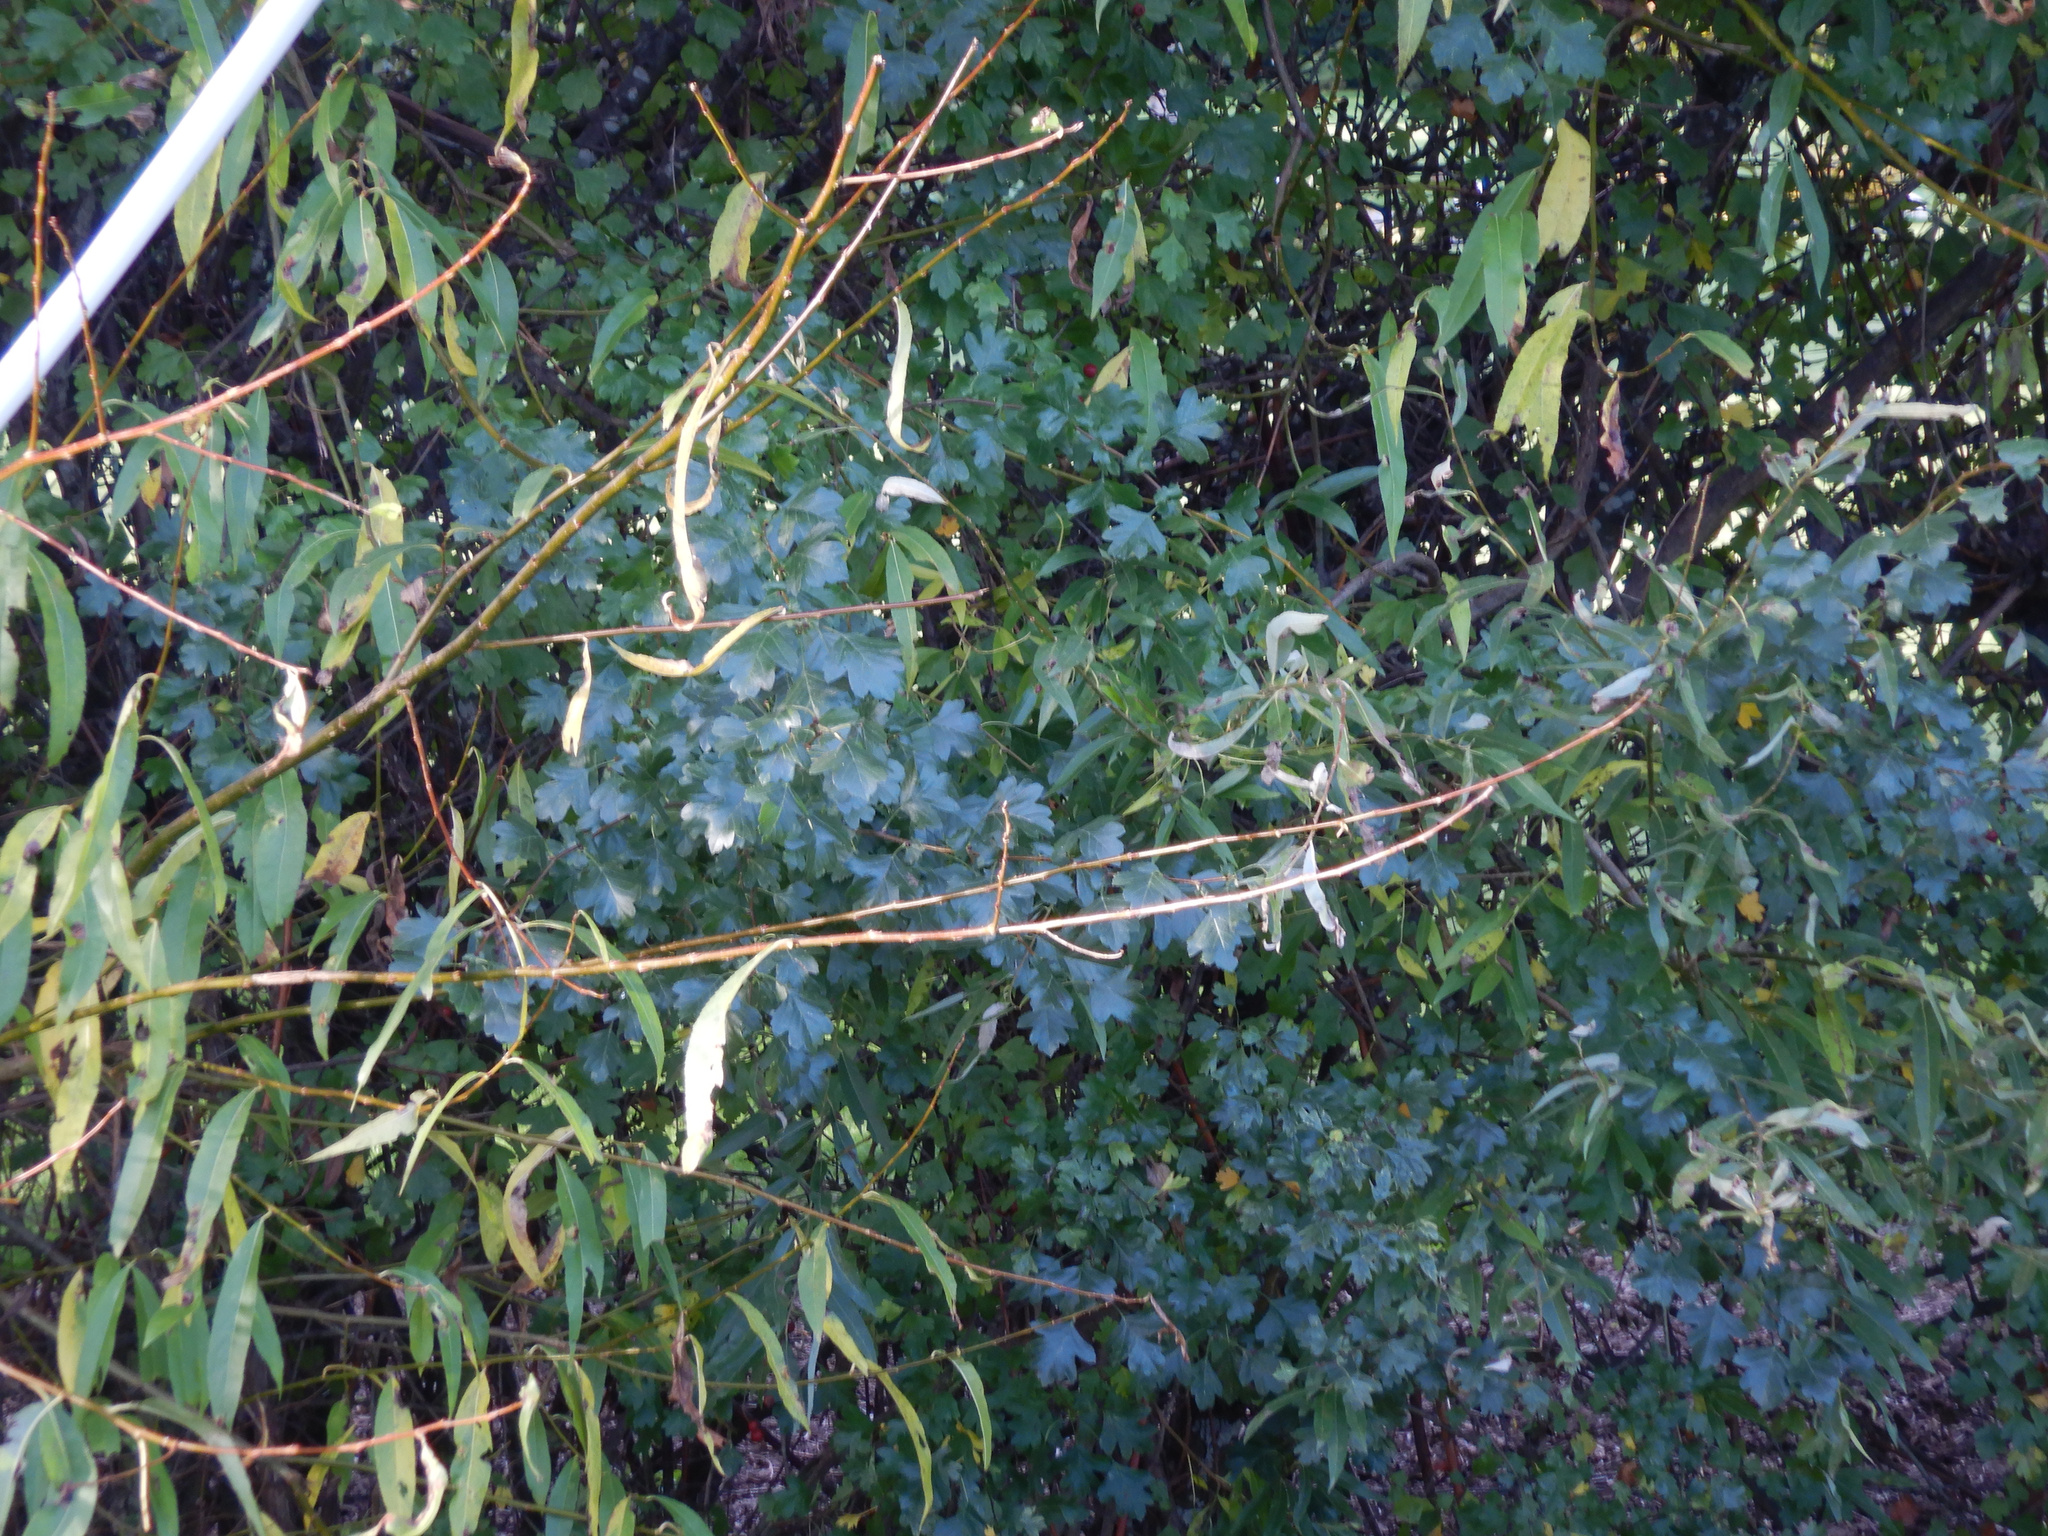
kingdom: Plantae
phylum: Tracheophyta
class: Magnoliopsida
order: Rosales
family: Rosaceae
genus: Crataegus
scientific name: Crataegus monogyna
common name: Hawthorn
